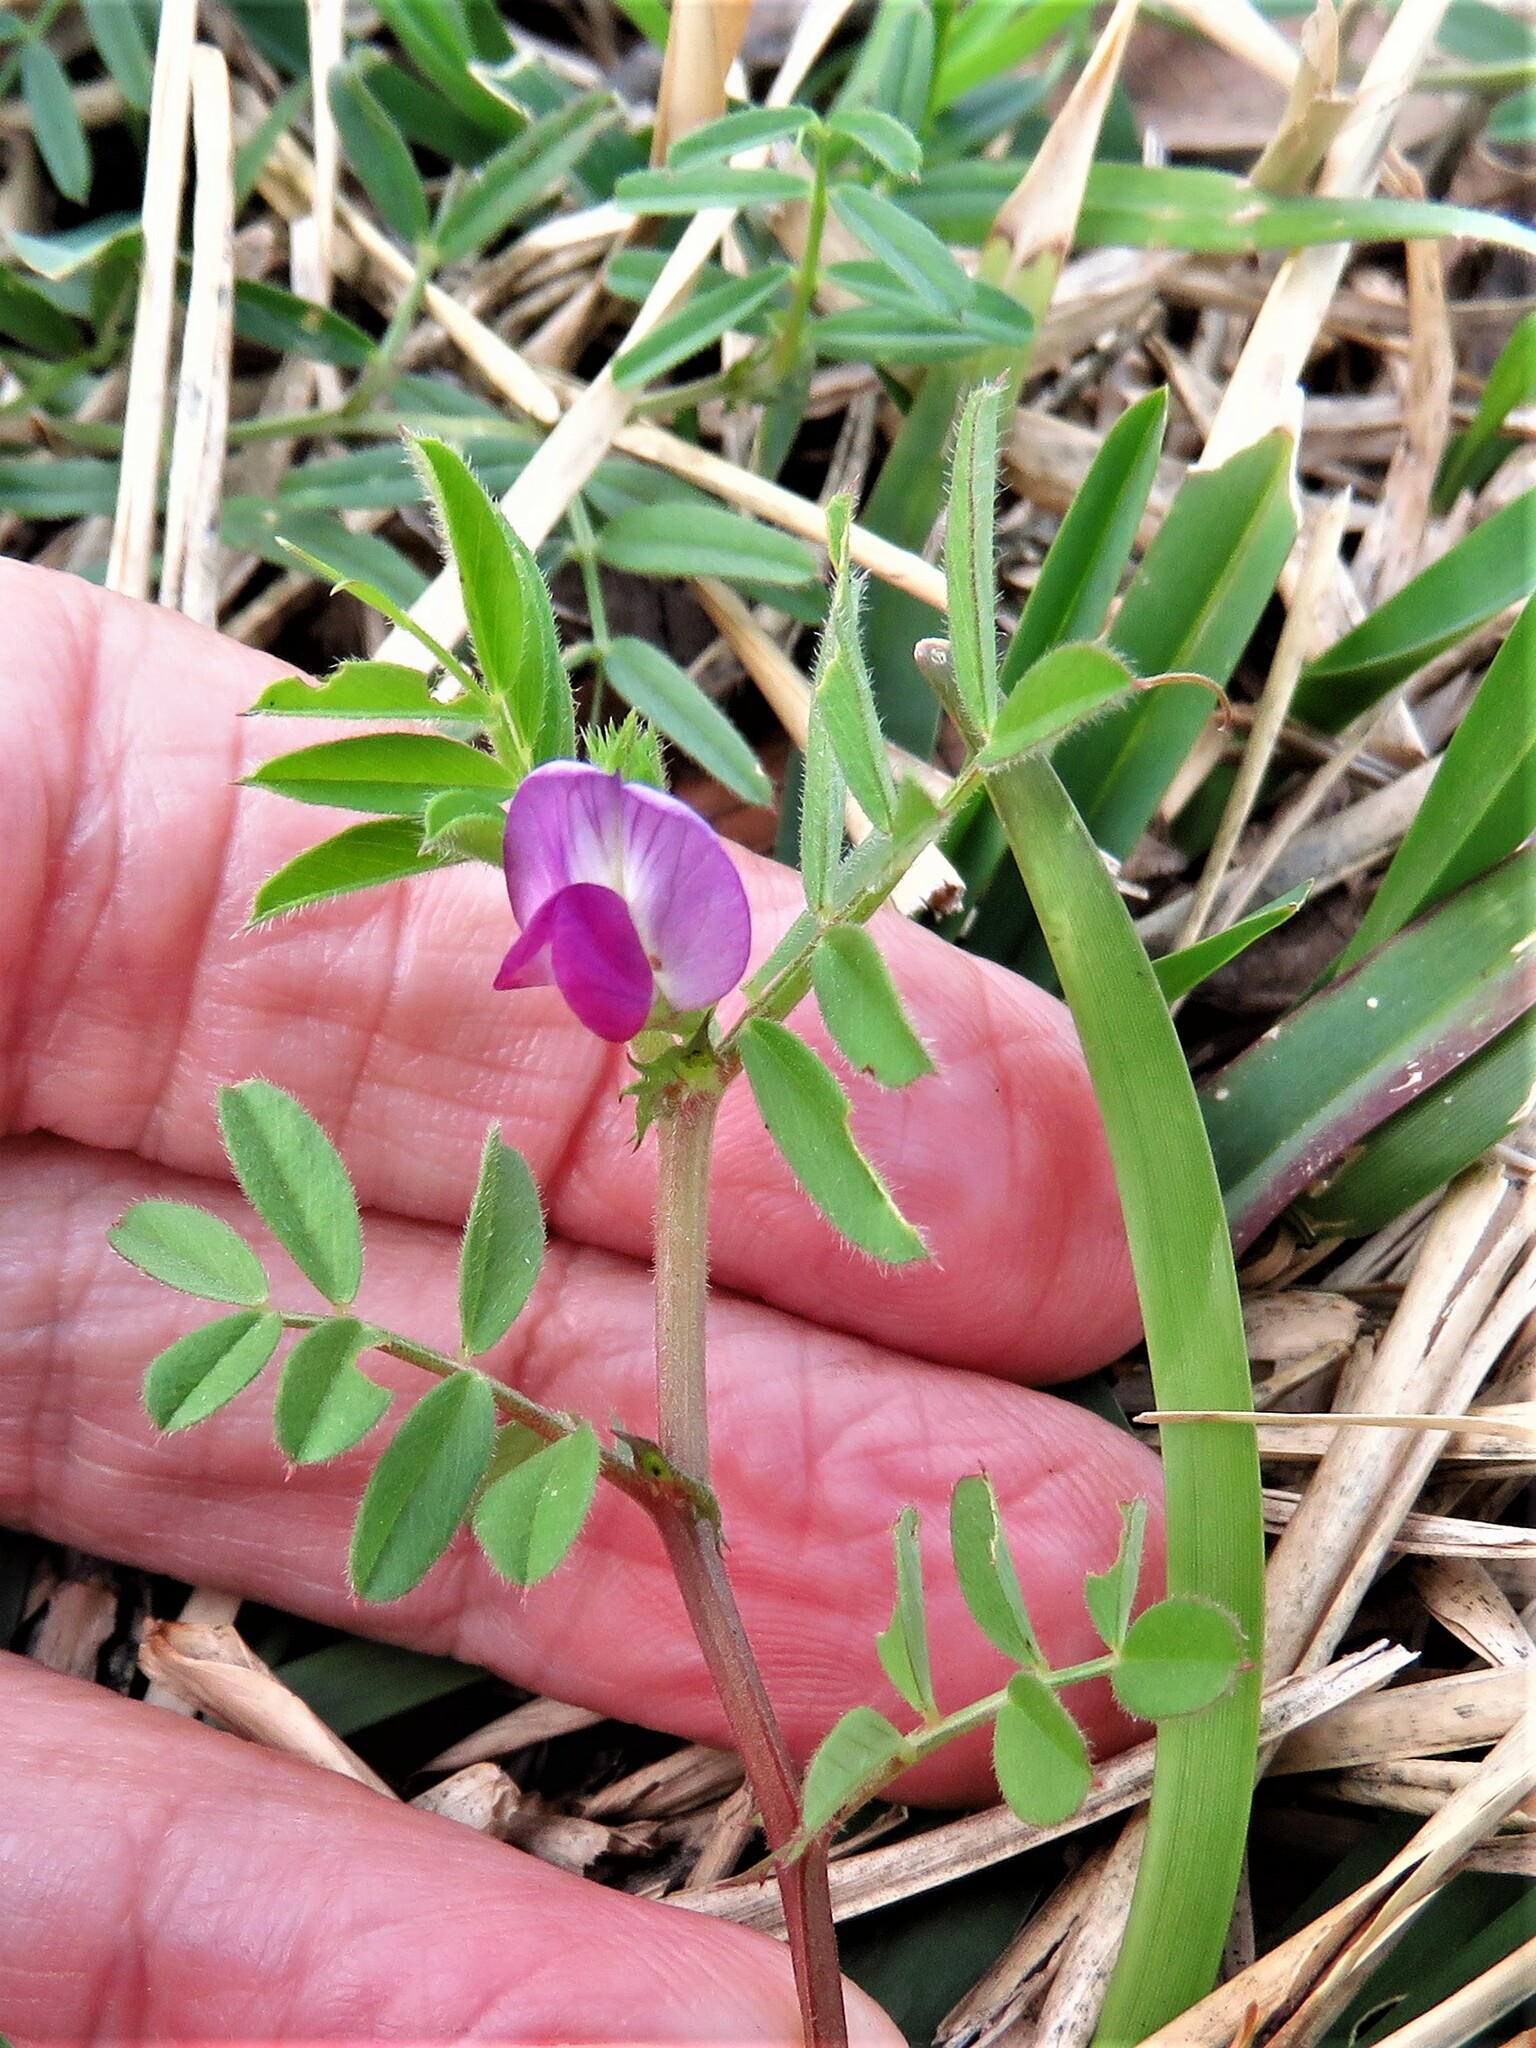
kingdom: Plantae
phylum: Tracheophyta
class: Magnoliopsida
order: Fabales
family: Fabaceae
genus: Vicia
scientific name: Vicia sativa
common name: Garden vetch
